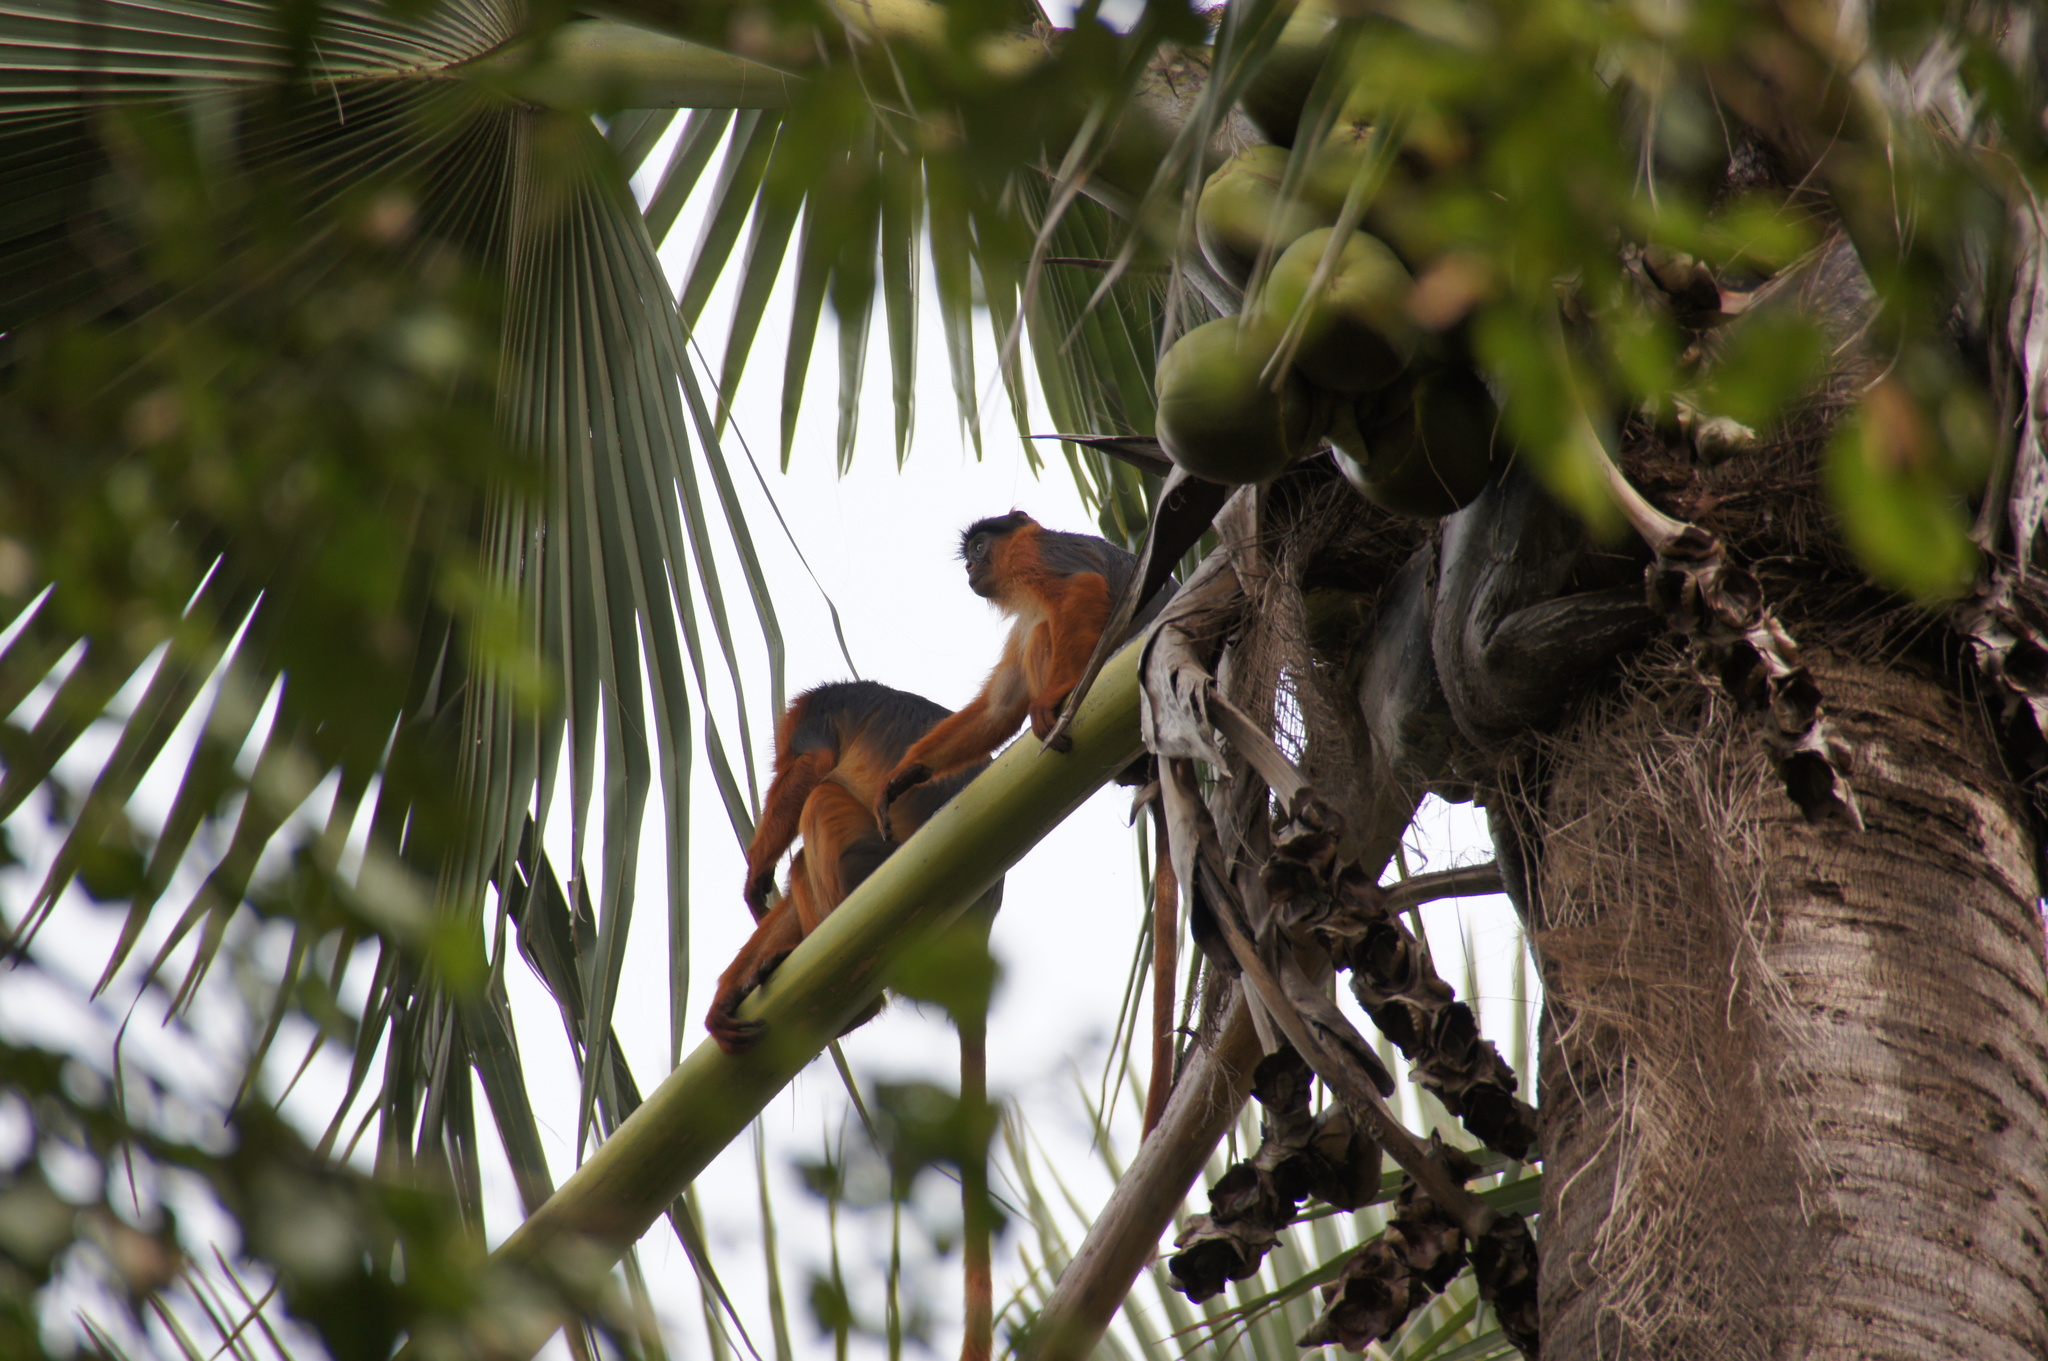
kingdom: Animalia
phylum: Chordata
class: Mammalia
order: Primates
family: Cercopithecidae
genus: Piliocolobus
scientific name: Piliocolobus badius
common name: Western red colobus
